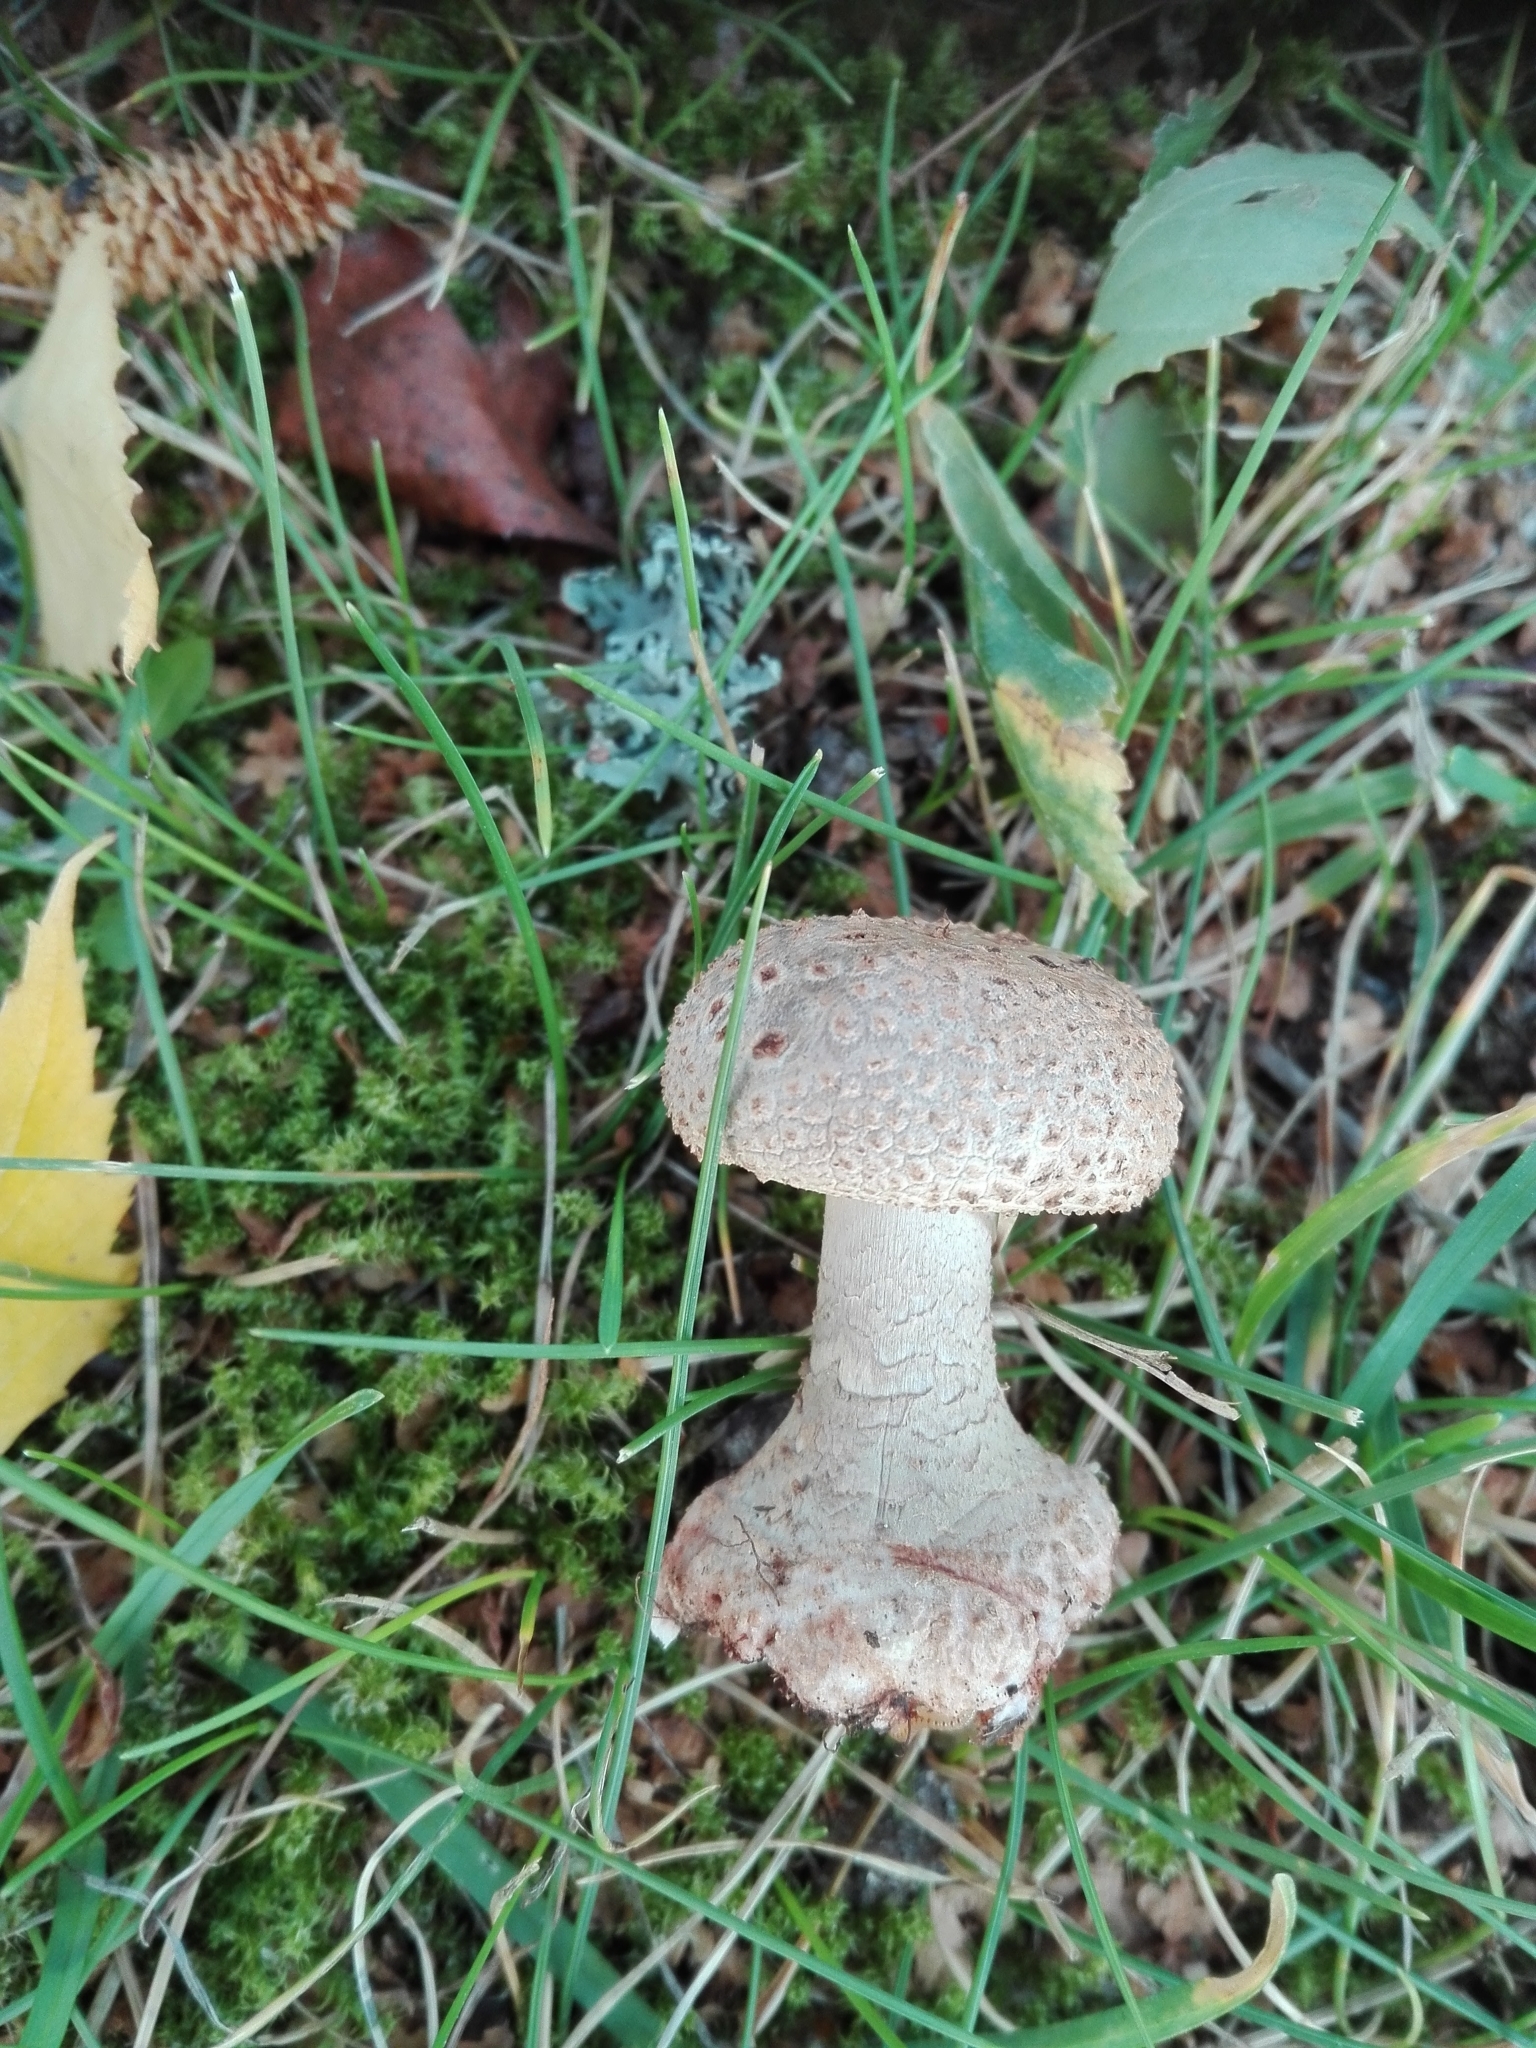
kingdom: Fungi
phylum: Basidiomycota
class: Agaricomycetes
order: Agaricales
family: Amanitaceae
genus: Amanita
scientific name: Amanita rubescens
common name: Blusher
